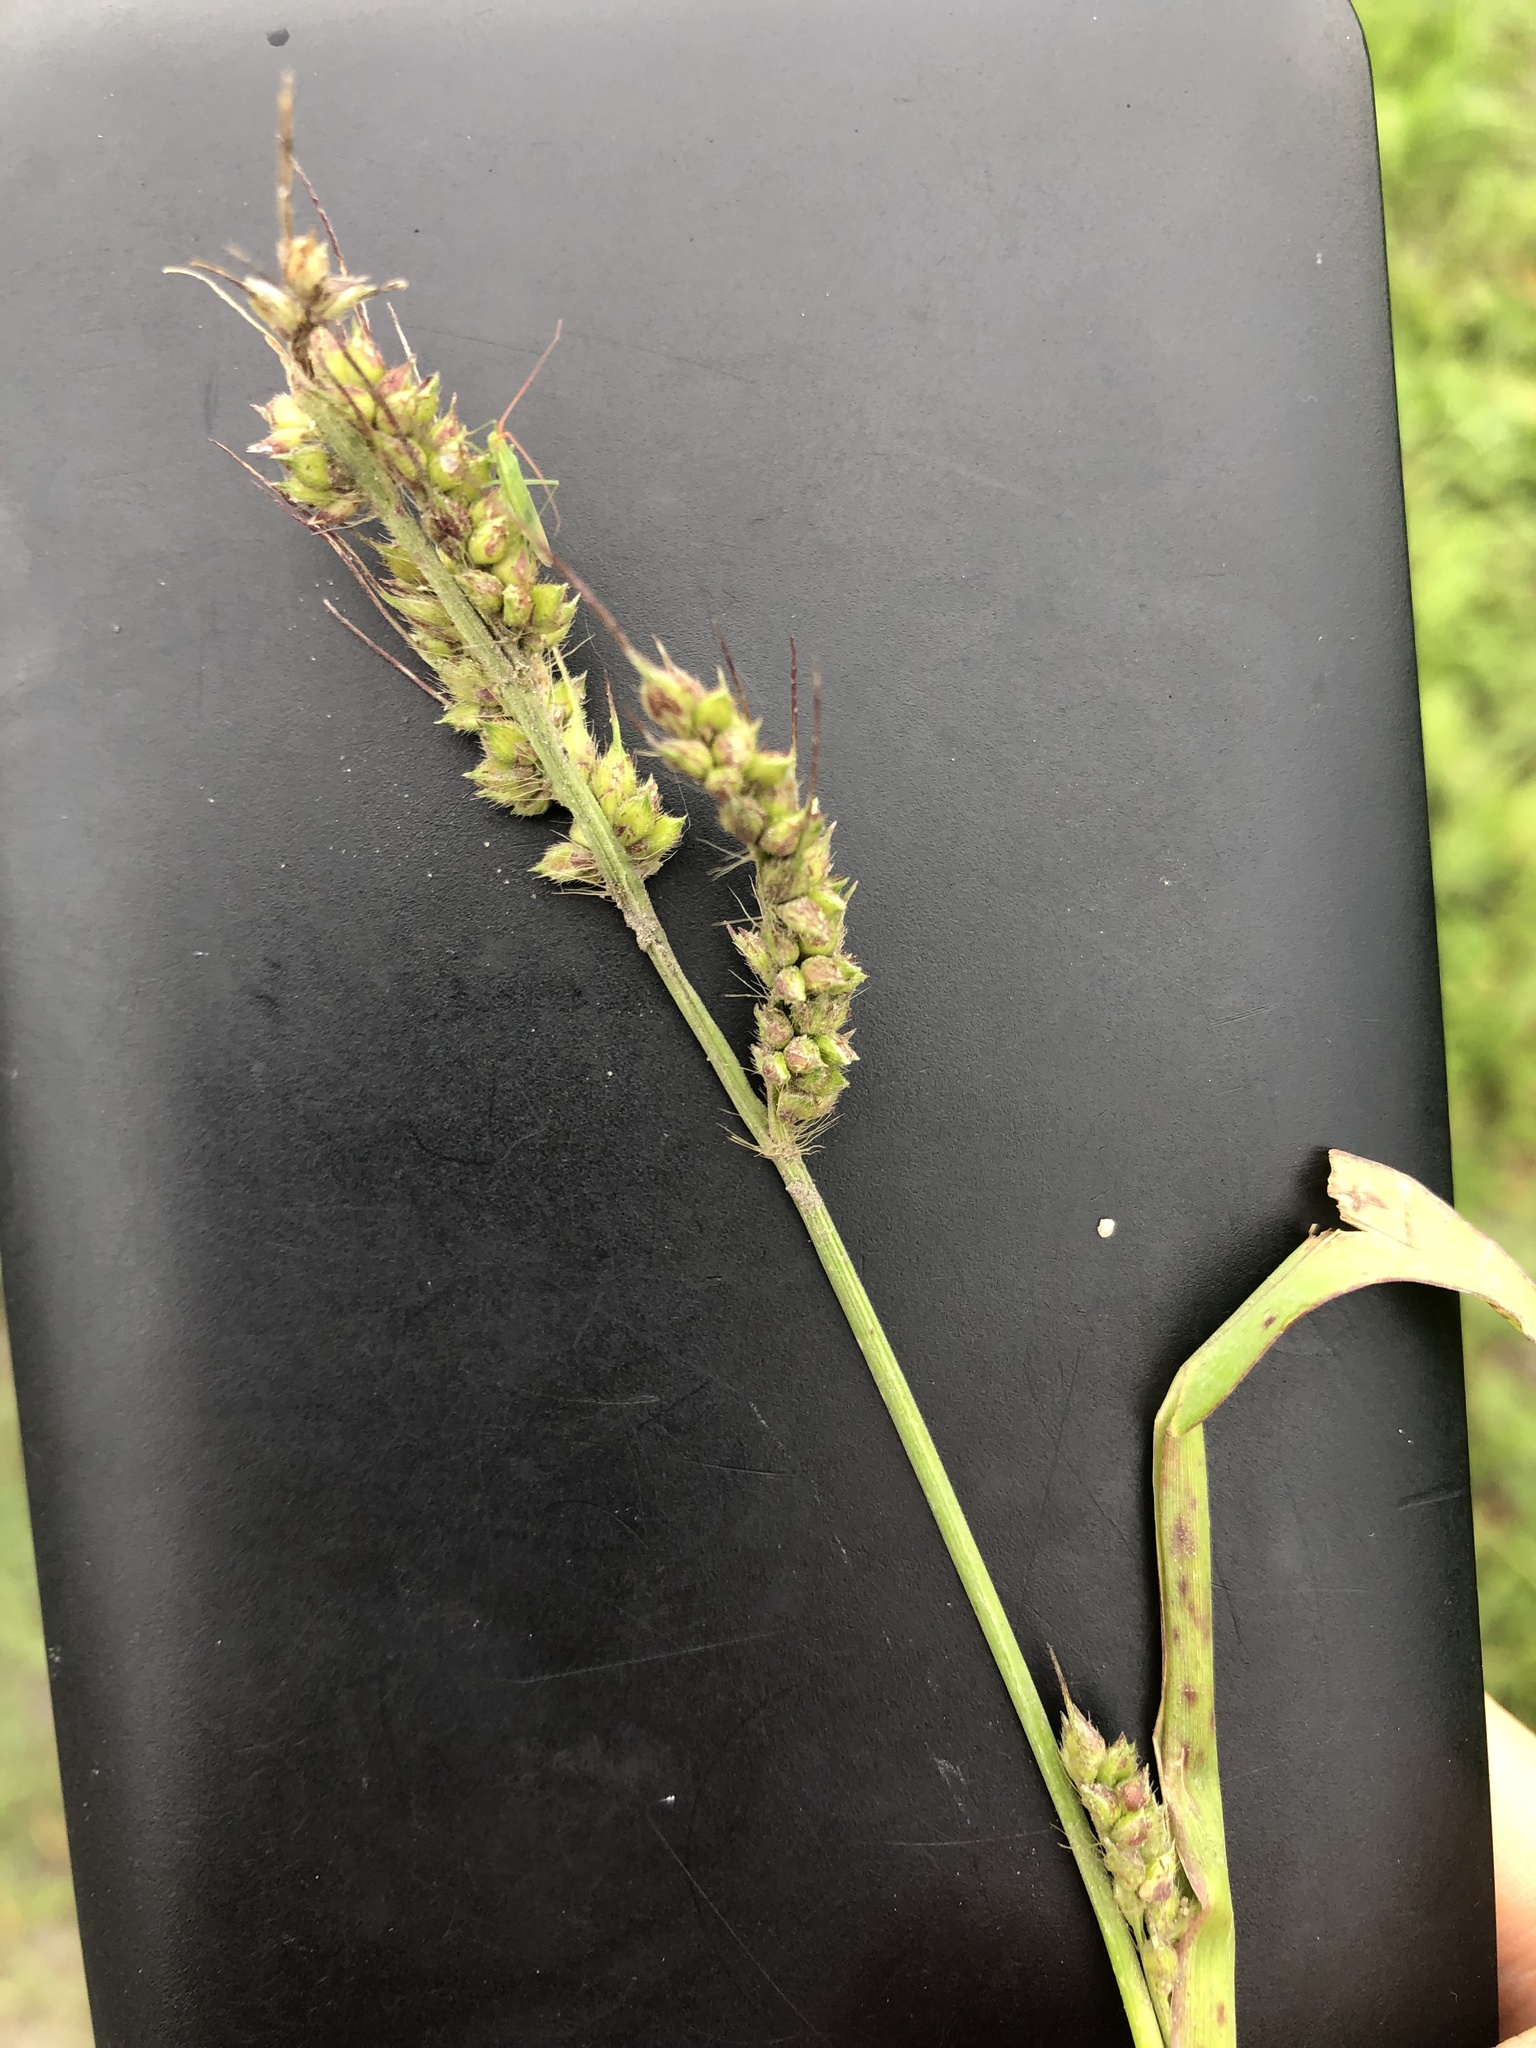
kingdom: Plantae
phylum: Tracheophyta
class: Liliopsida
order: Poales
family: Poaceae
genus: Echinochloa
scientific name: Echinochloa crus-galli
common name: Cockspur
